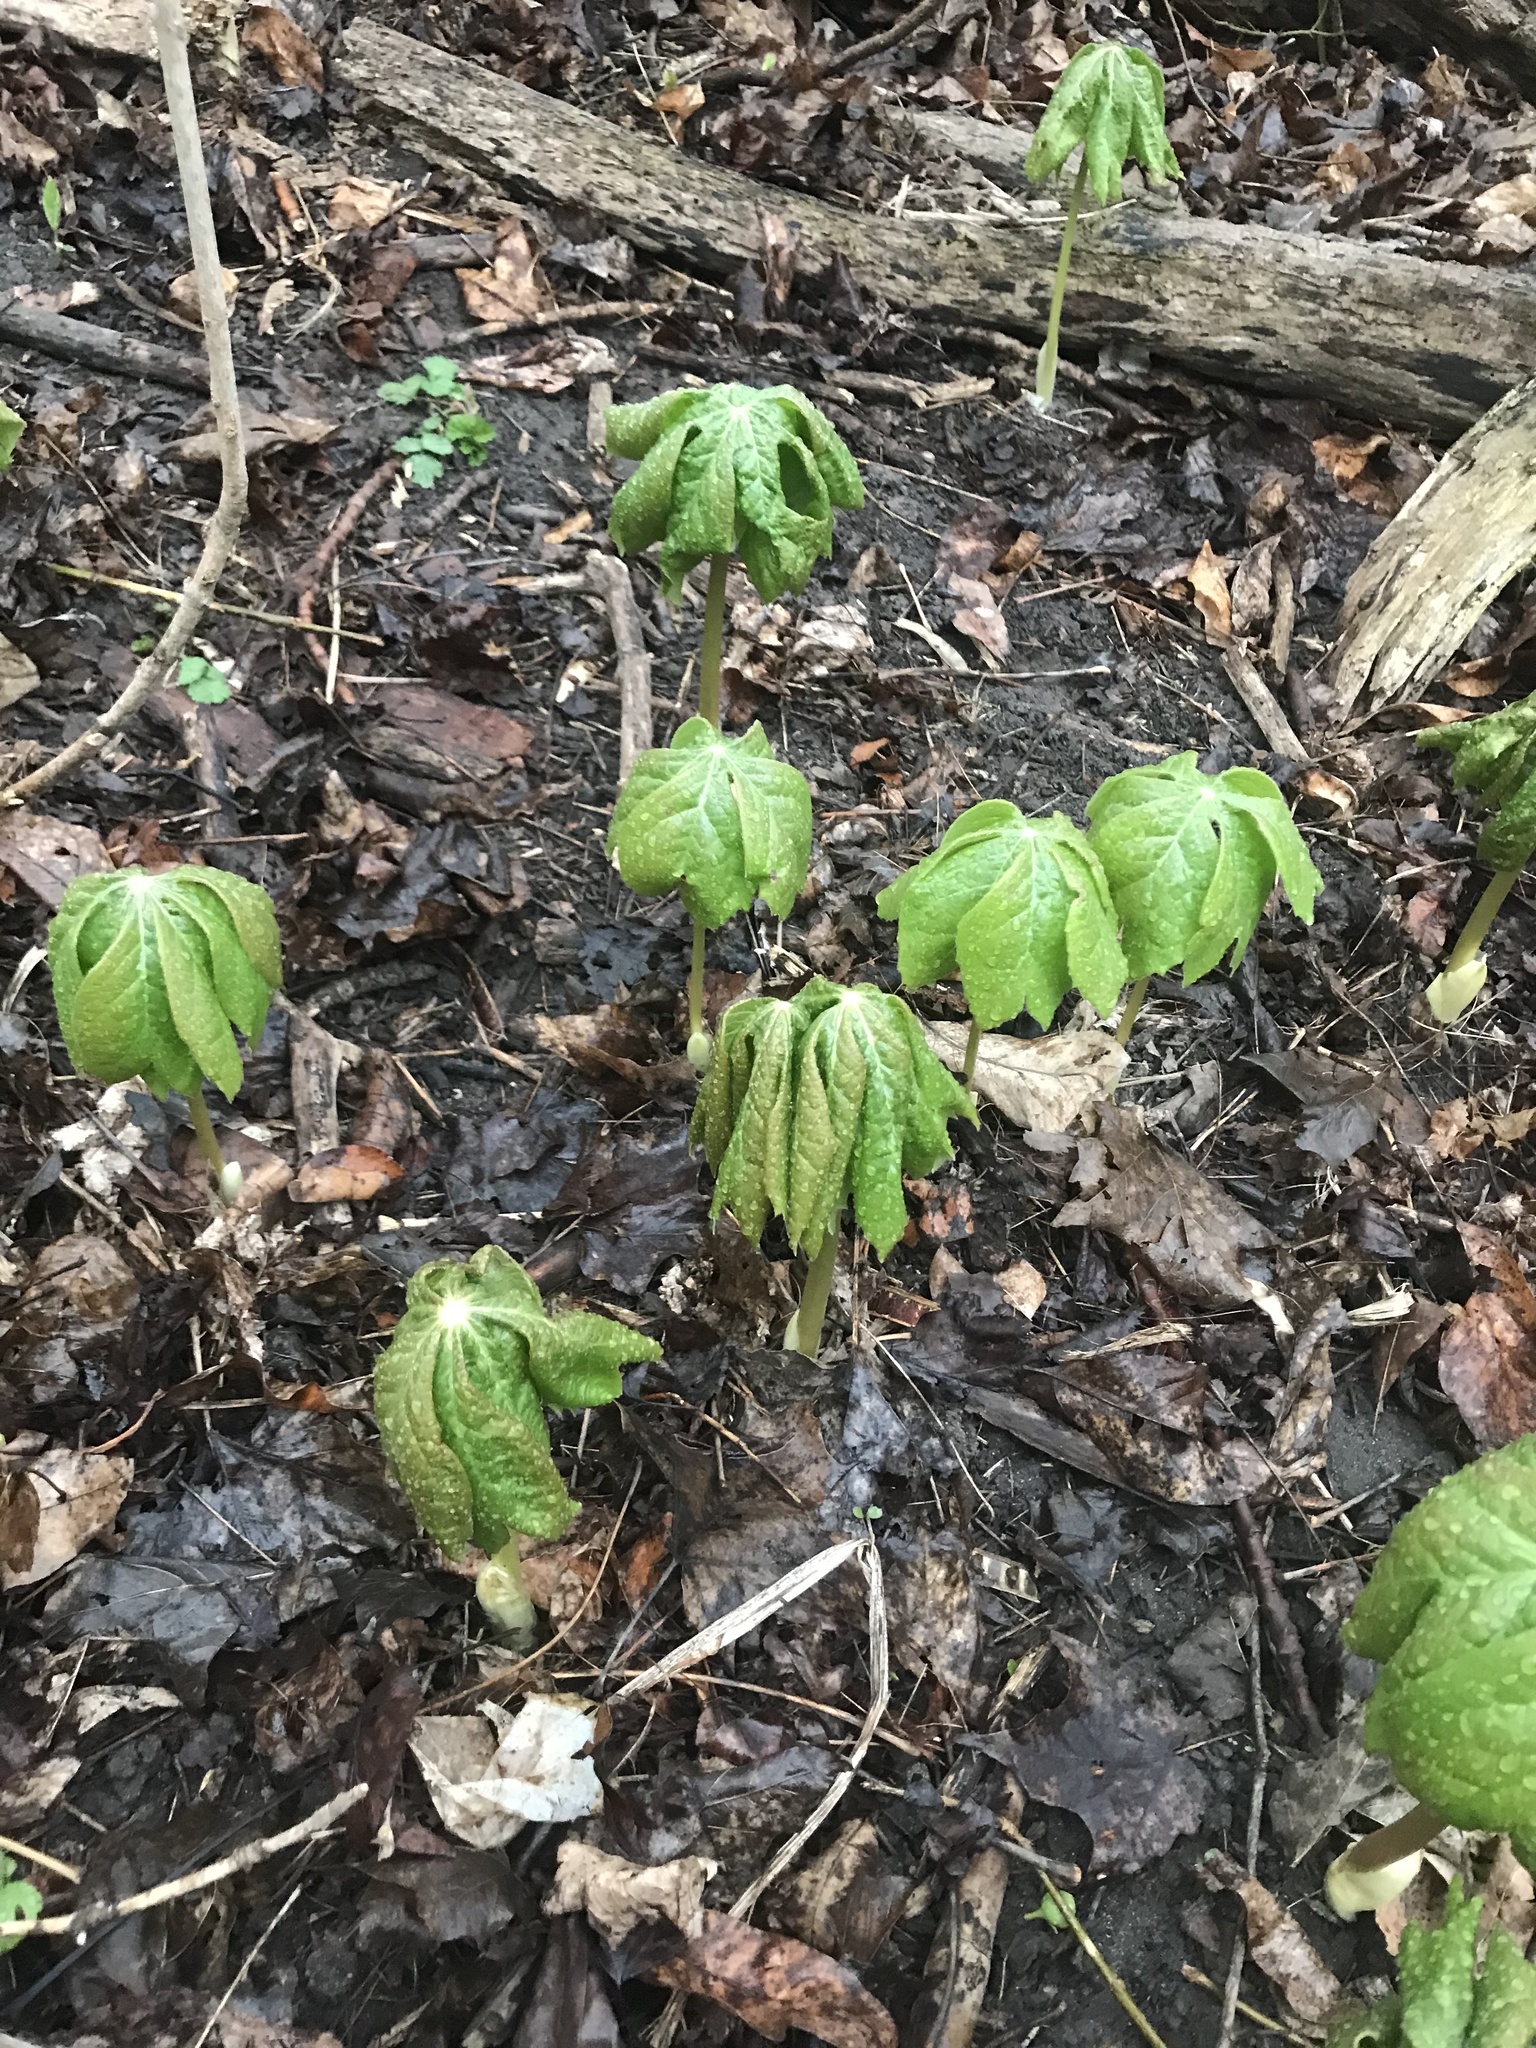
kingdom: Plantae
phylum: Tracheophyta
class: Magnoliopsida
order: Ranunculales
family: Berberidaceae
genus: Podophyllum
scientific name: Podophyllum peltatum
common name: Wild mandrake
